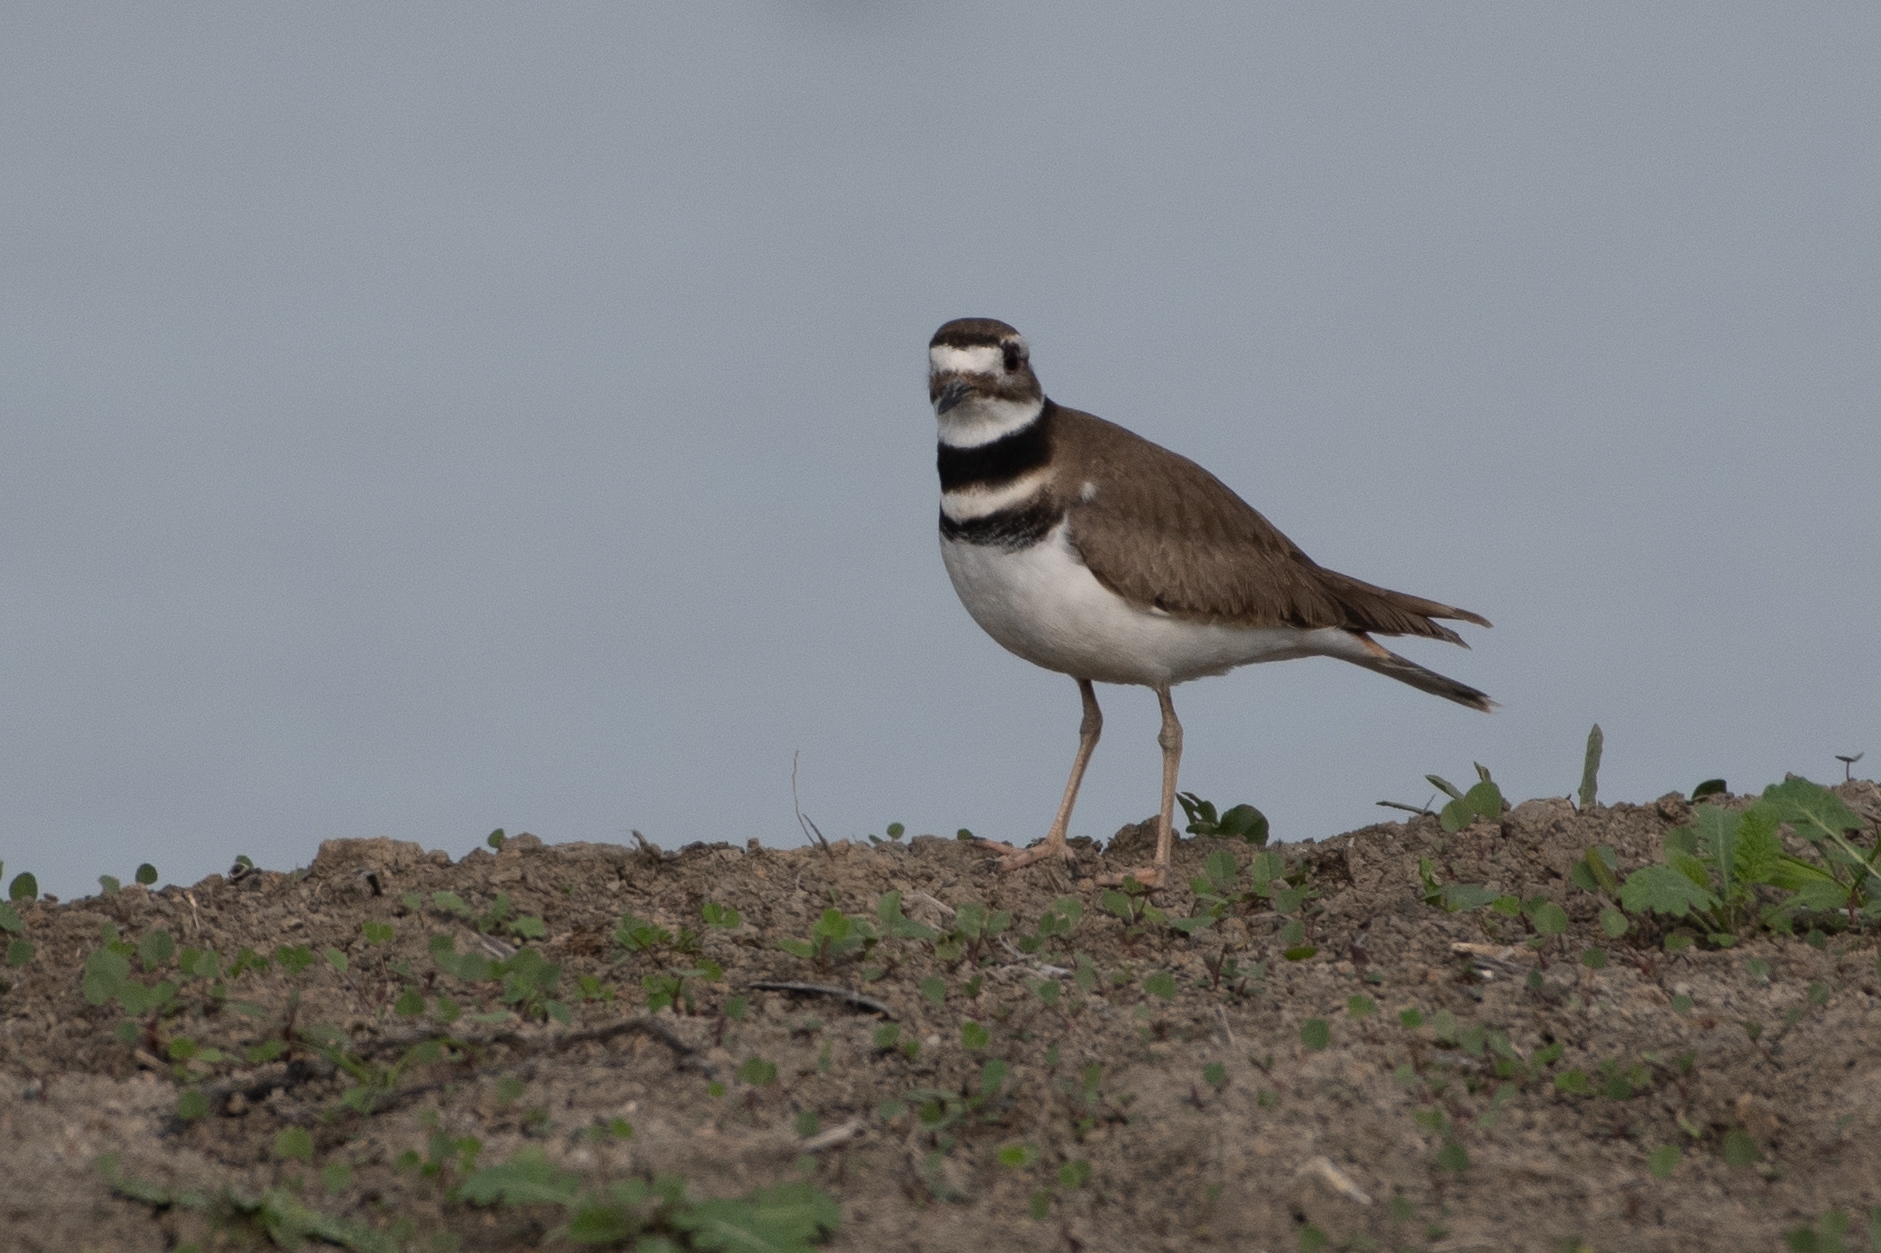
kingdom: Animalia
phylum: Chordata
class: Aves
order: Charadriiformes
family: Charadriidae
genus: Charadrius
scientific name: Charadrius vociferus
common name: Killdeer
